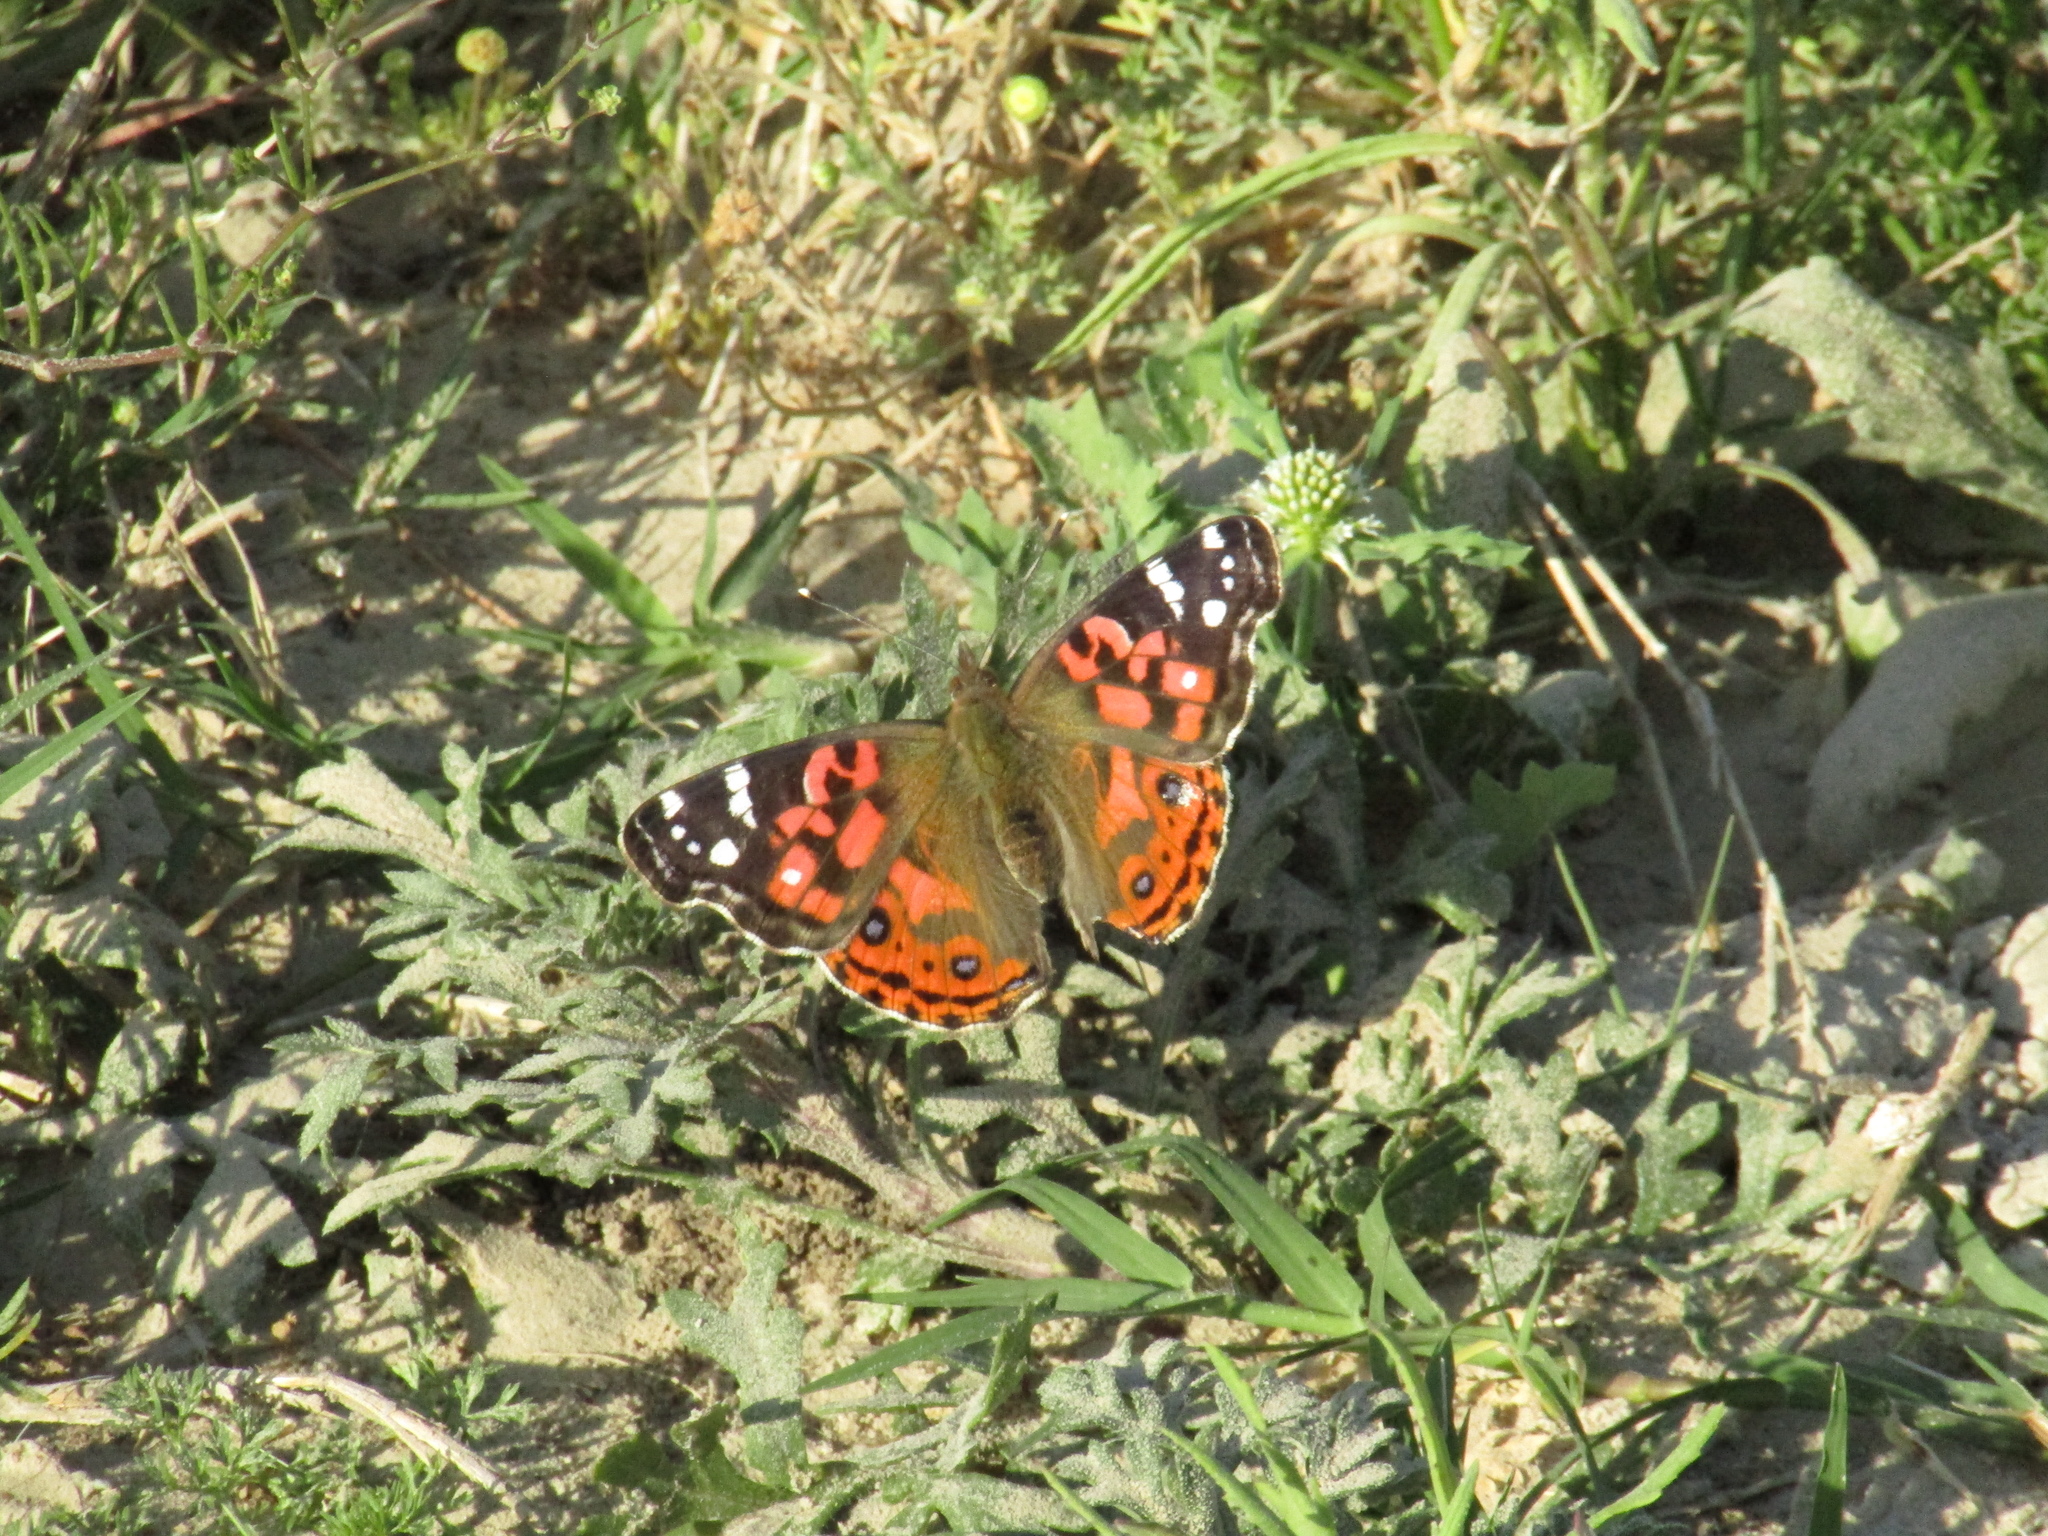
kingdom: Animalia
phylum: Arthropoda
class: Insecta
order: Lepidoptera
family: Nymphalidae
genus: Vanessa
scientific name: Vanessa braziliensis
